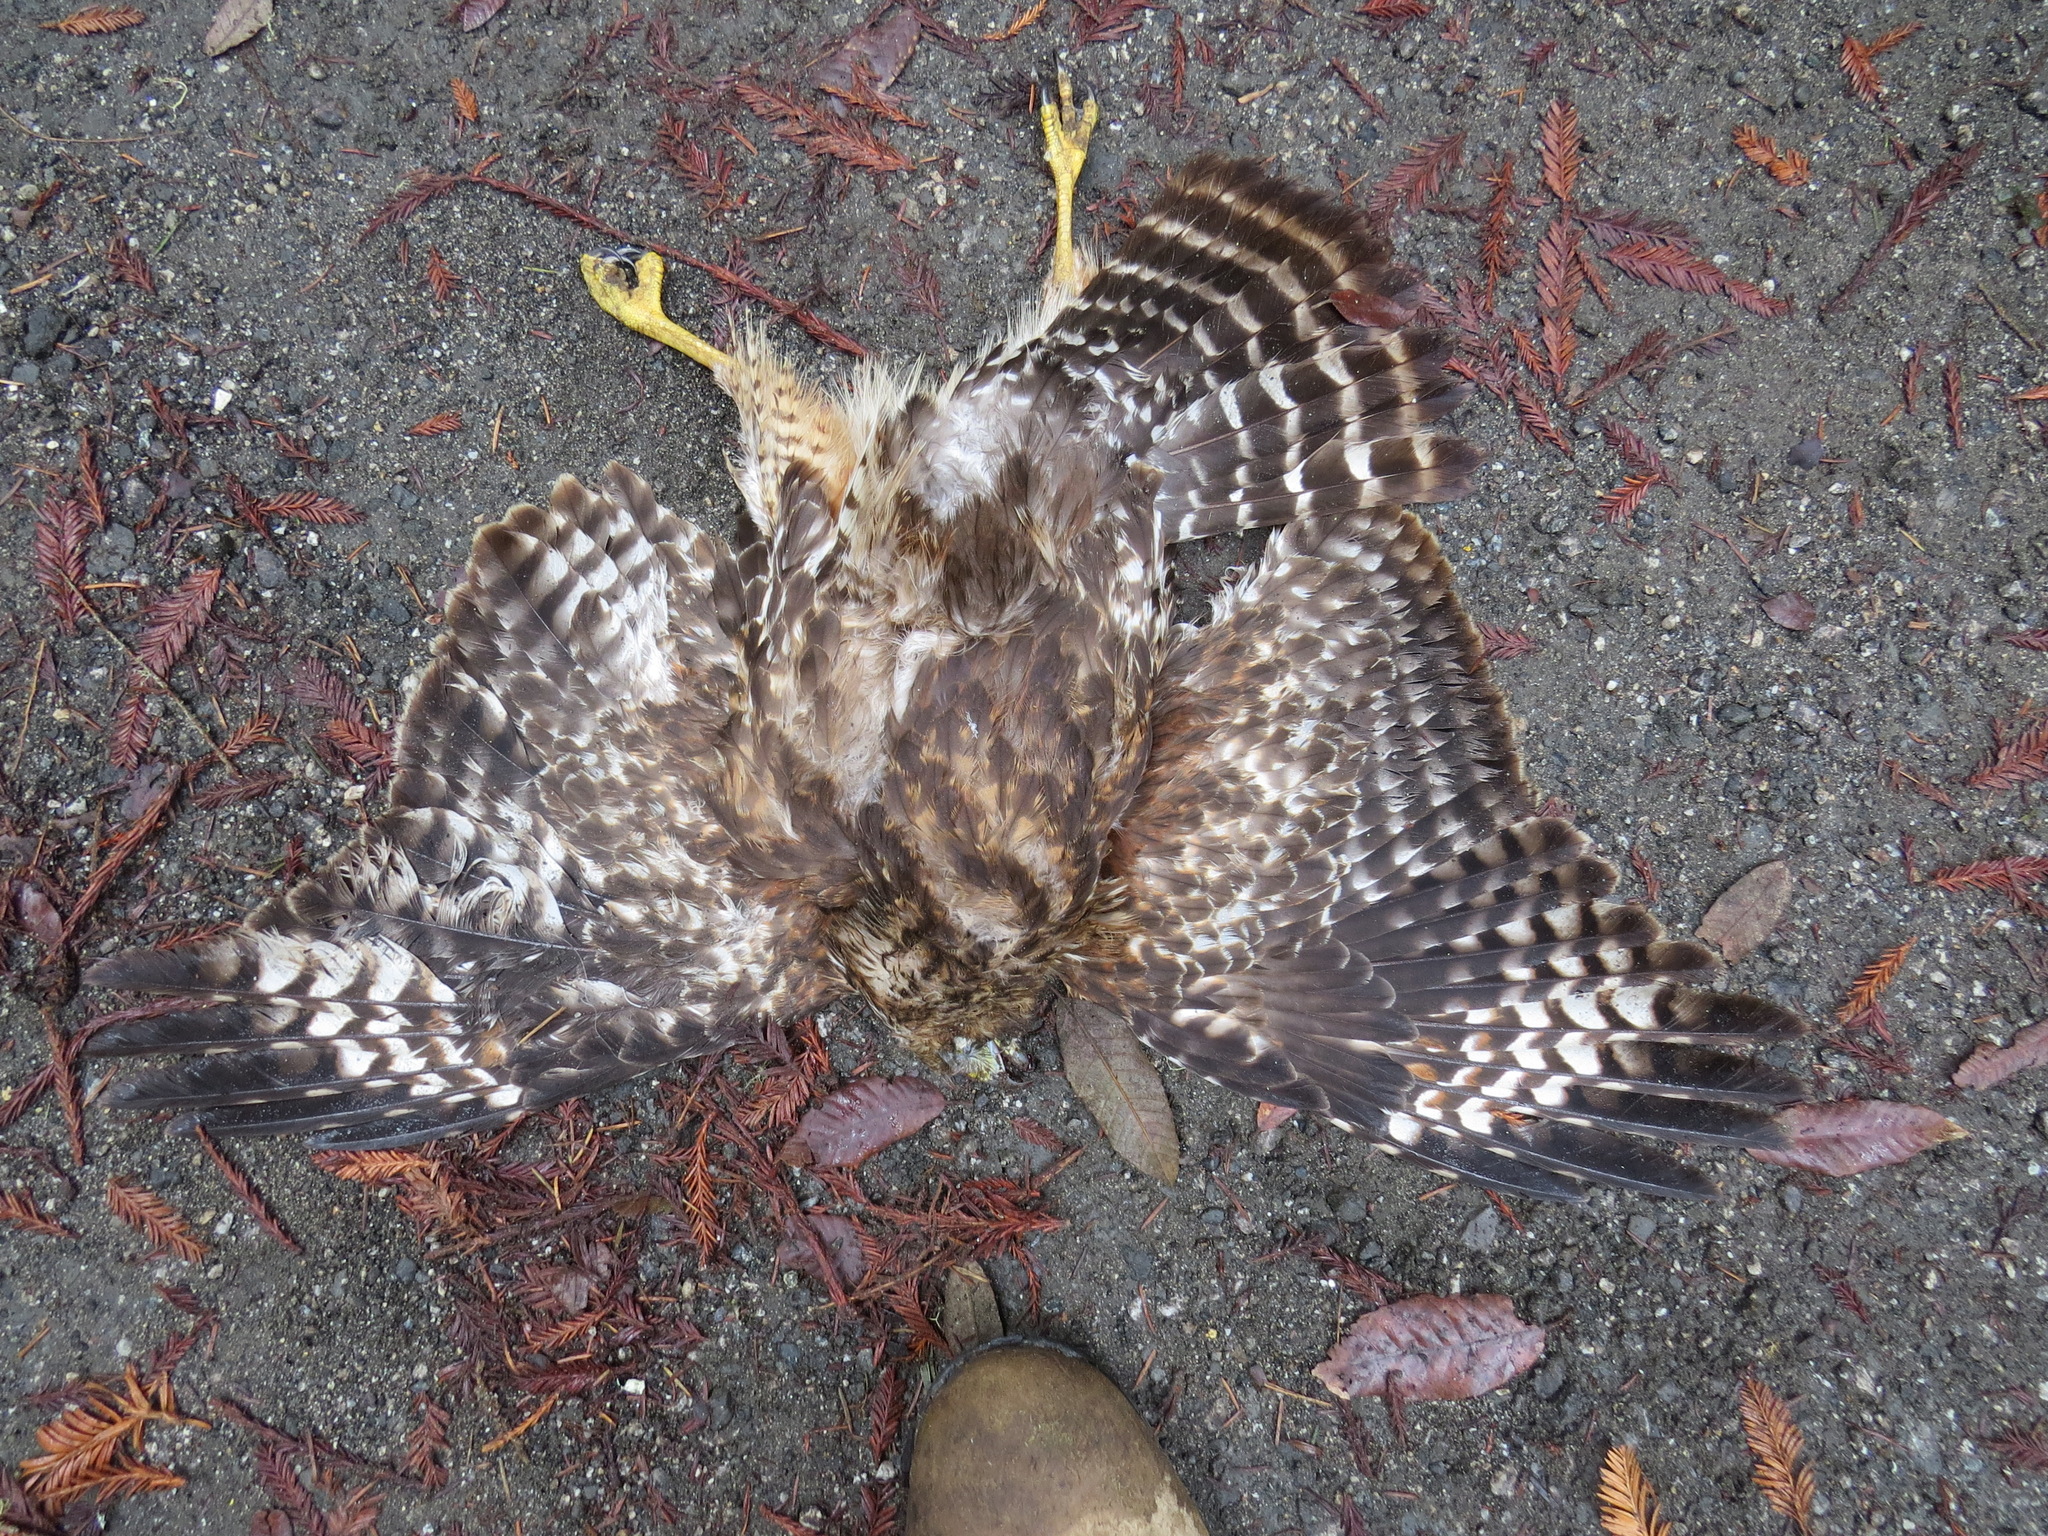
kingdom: Animalia
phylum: Chordata
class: Aves
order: Accipitriformes
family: Accipitridae
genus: Buteo
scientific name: Buteo lineatus
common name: Red-shouldered hawk
